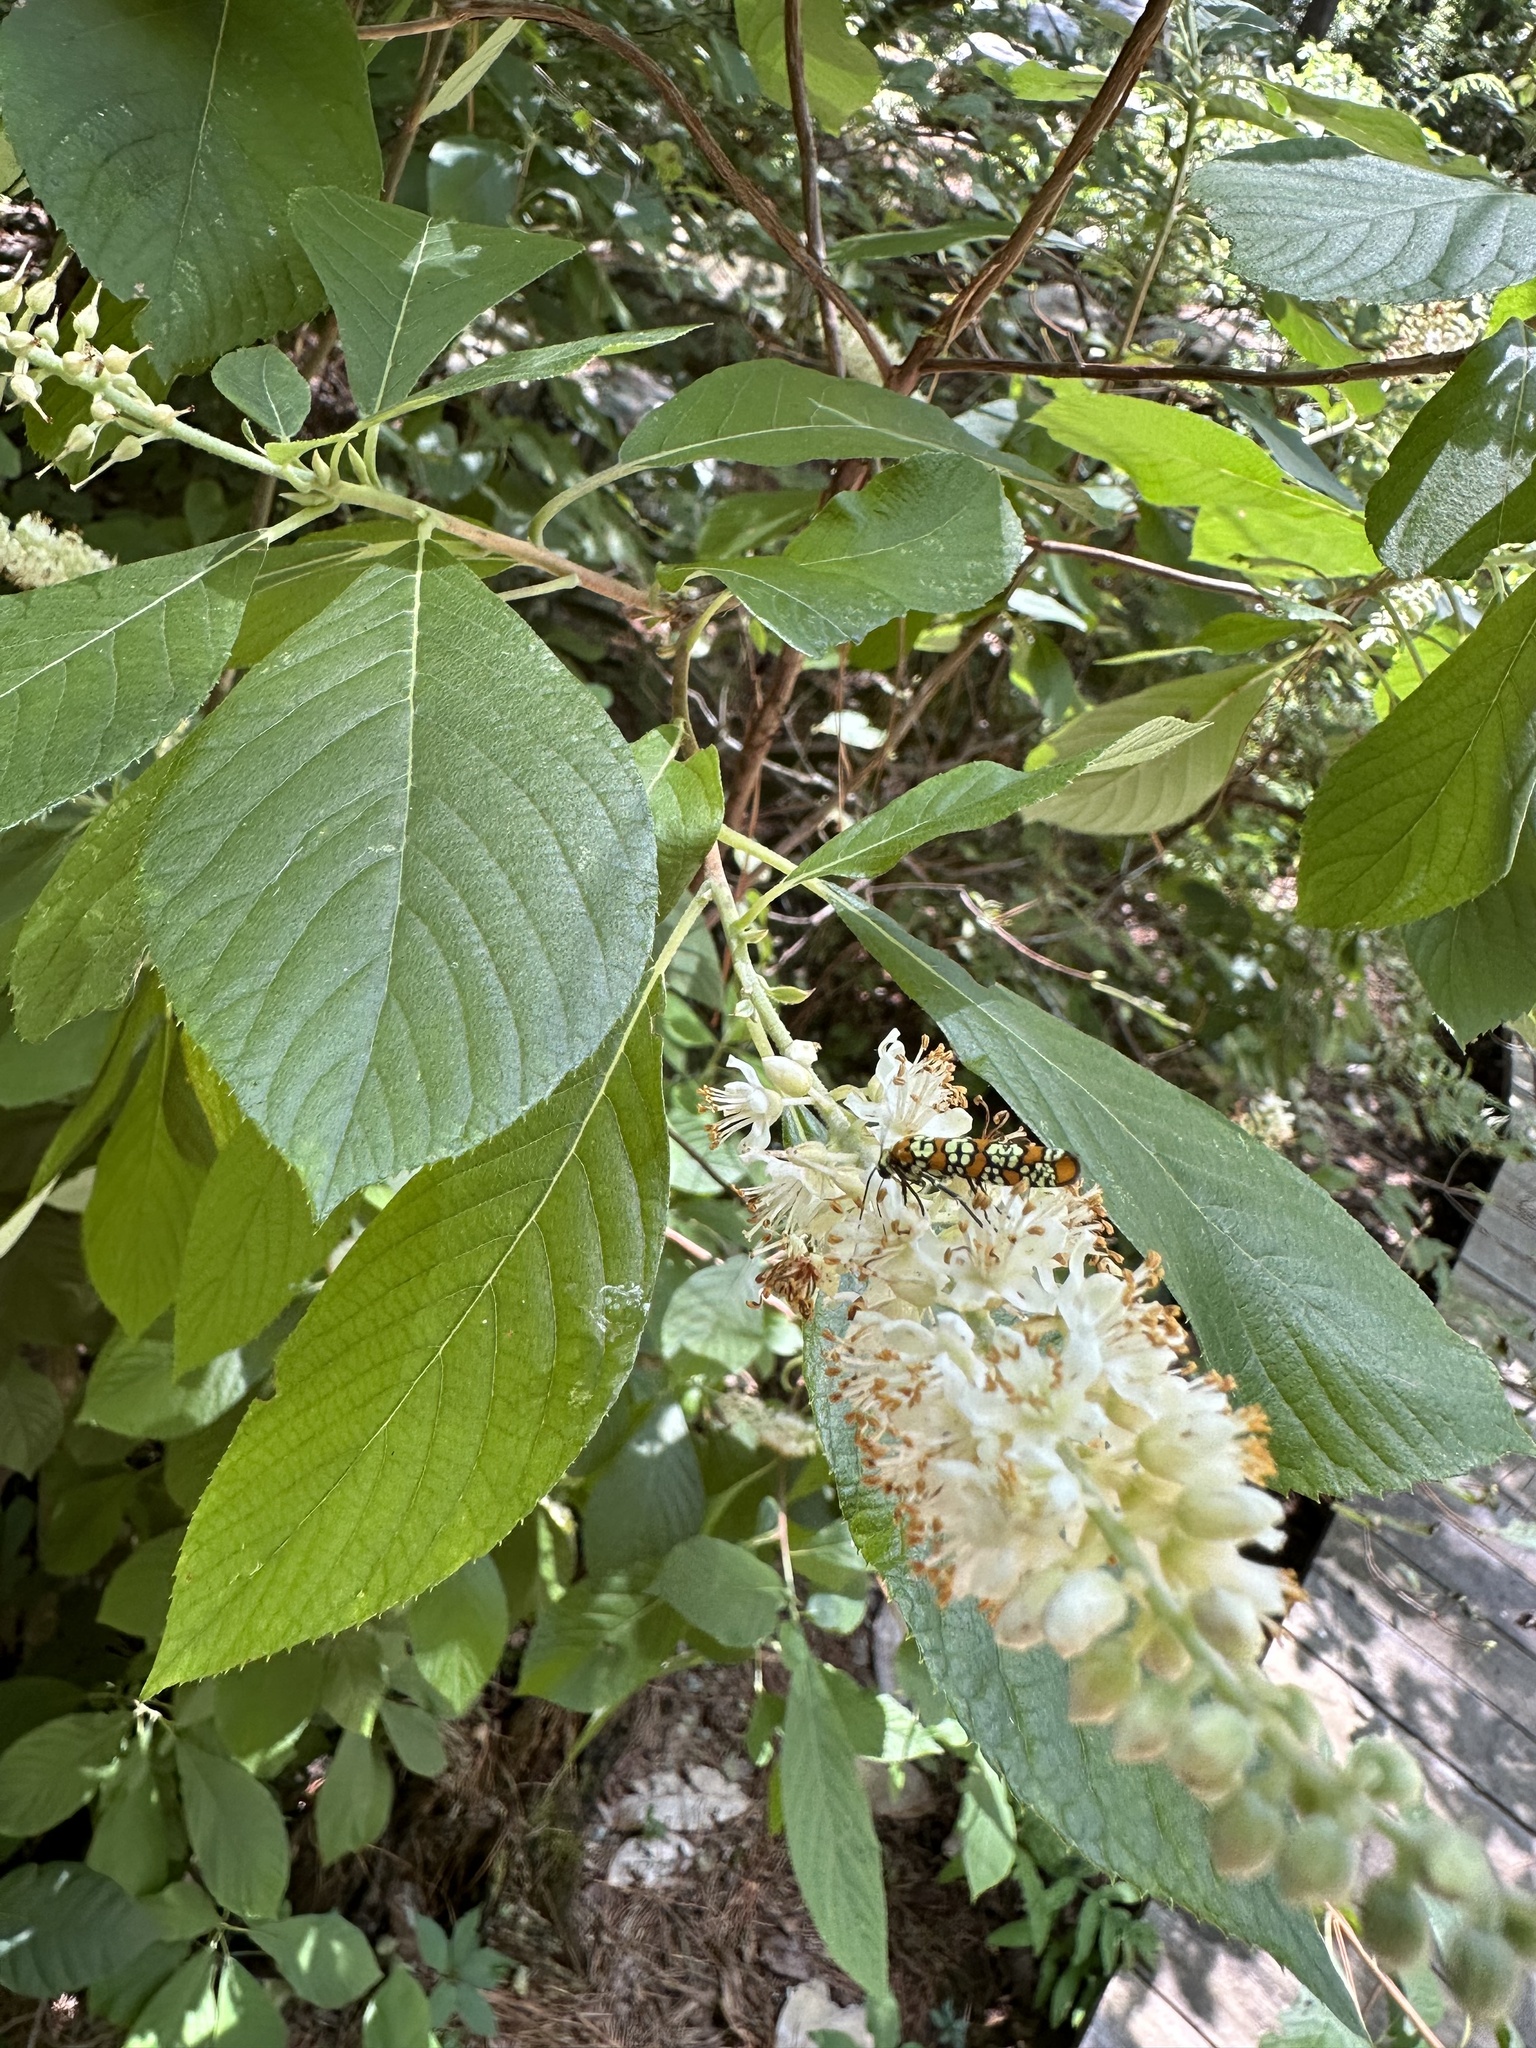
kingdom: Animalia
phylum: Arthropoda
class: Insecta
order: Lepidoptera
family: Attevidae
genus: Atteva
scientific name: Atteva punctella
